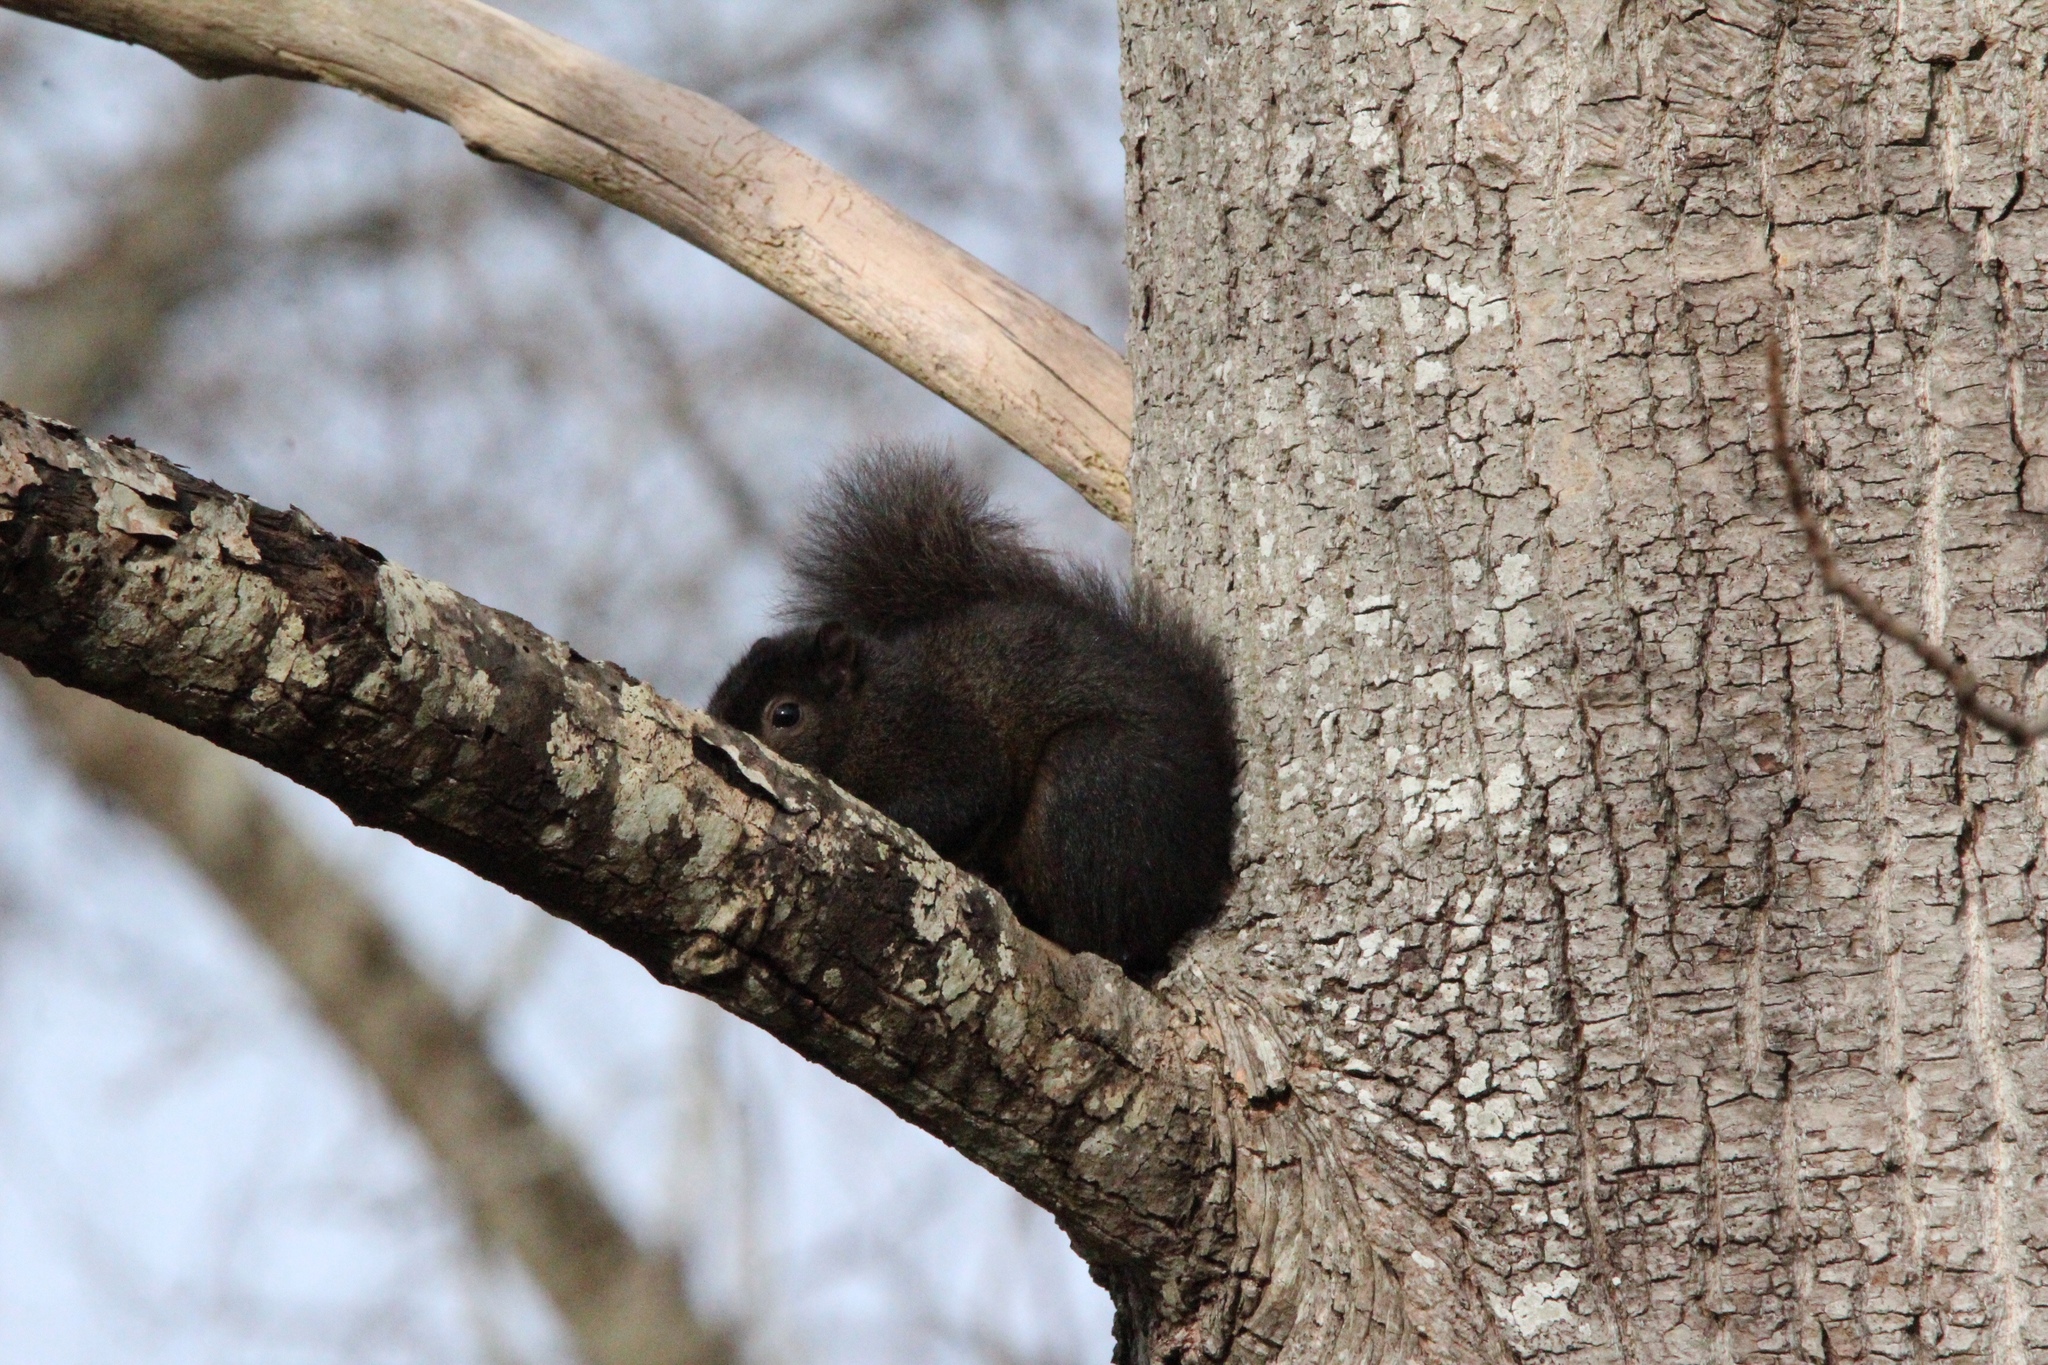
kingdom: Animalia
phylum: Chordata
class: Mammalia
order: Rodentia
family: Sciuridae
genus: Sciurus
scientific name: Sciurus carolinensis
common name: Eastern gray squirrel
